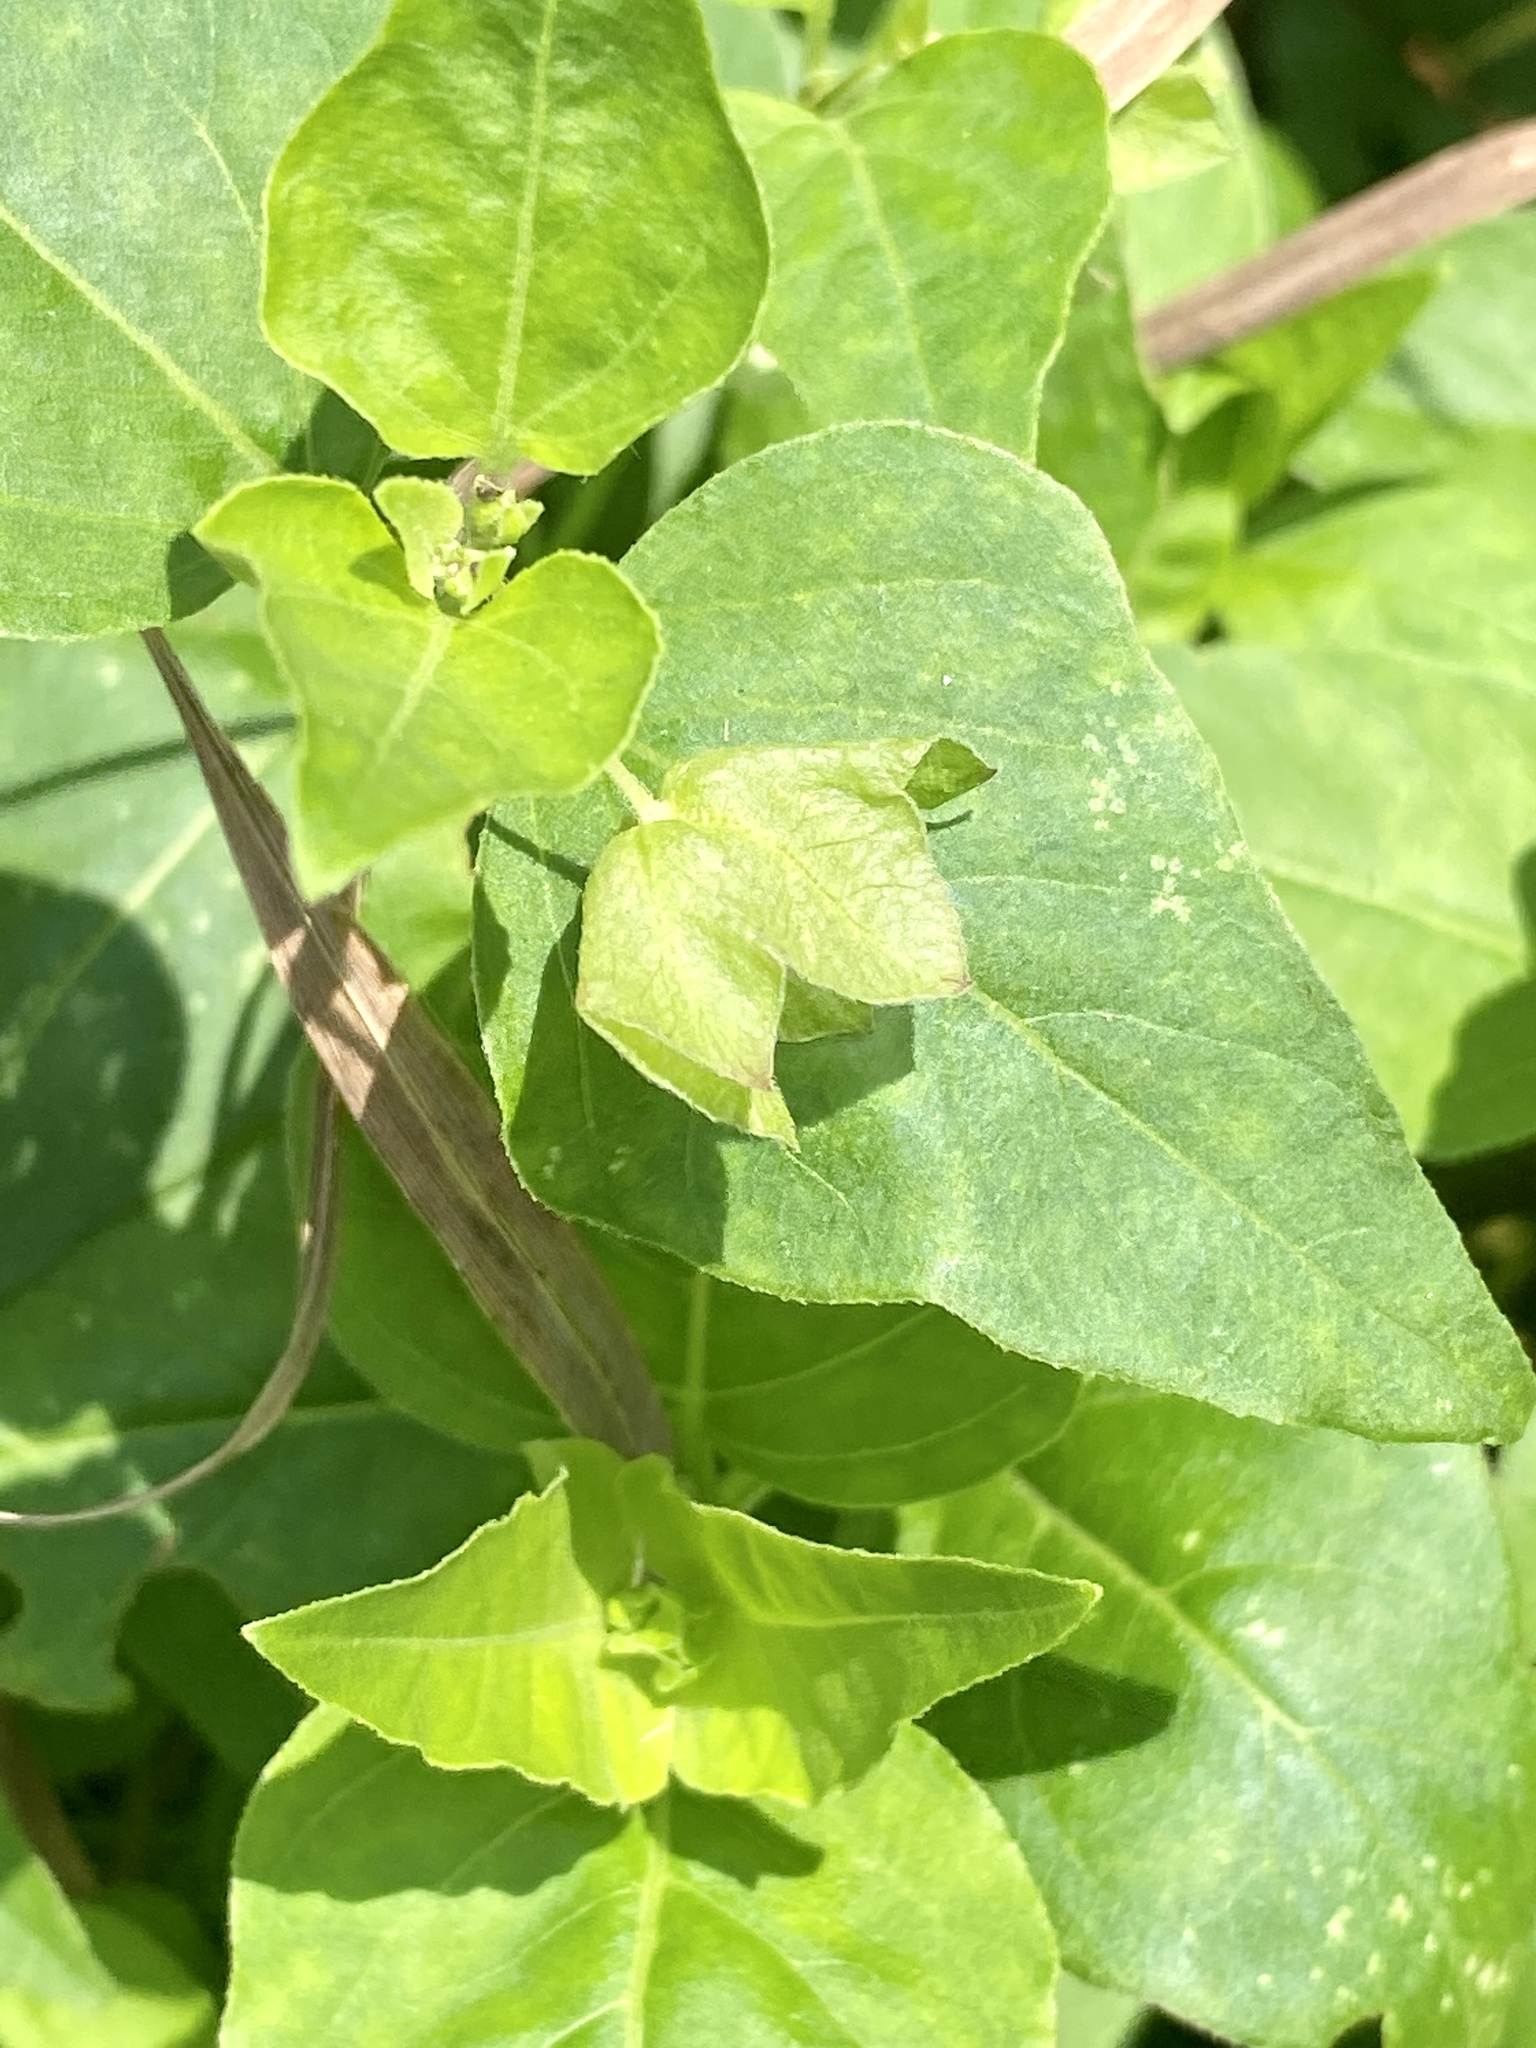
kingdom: Plantae
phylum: Tracheophyta
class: Magnoliopsida
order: Caryophyllales
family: Nyctaginaceae
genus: Mirabilis
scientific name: Mirabilis nyctaginea
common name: Umbrella wort
